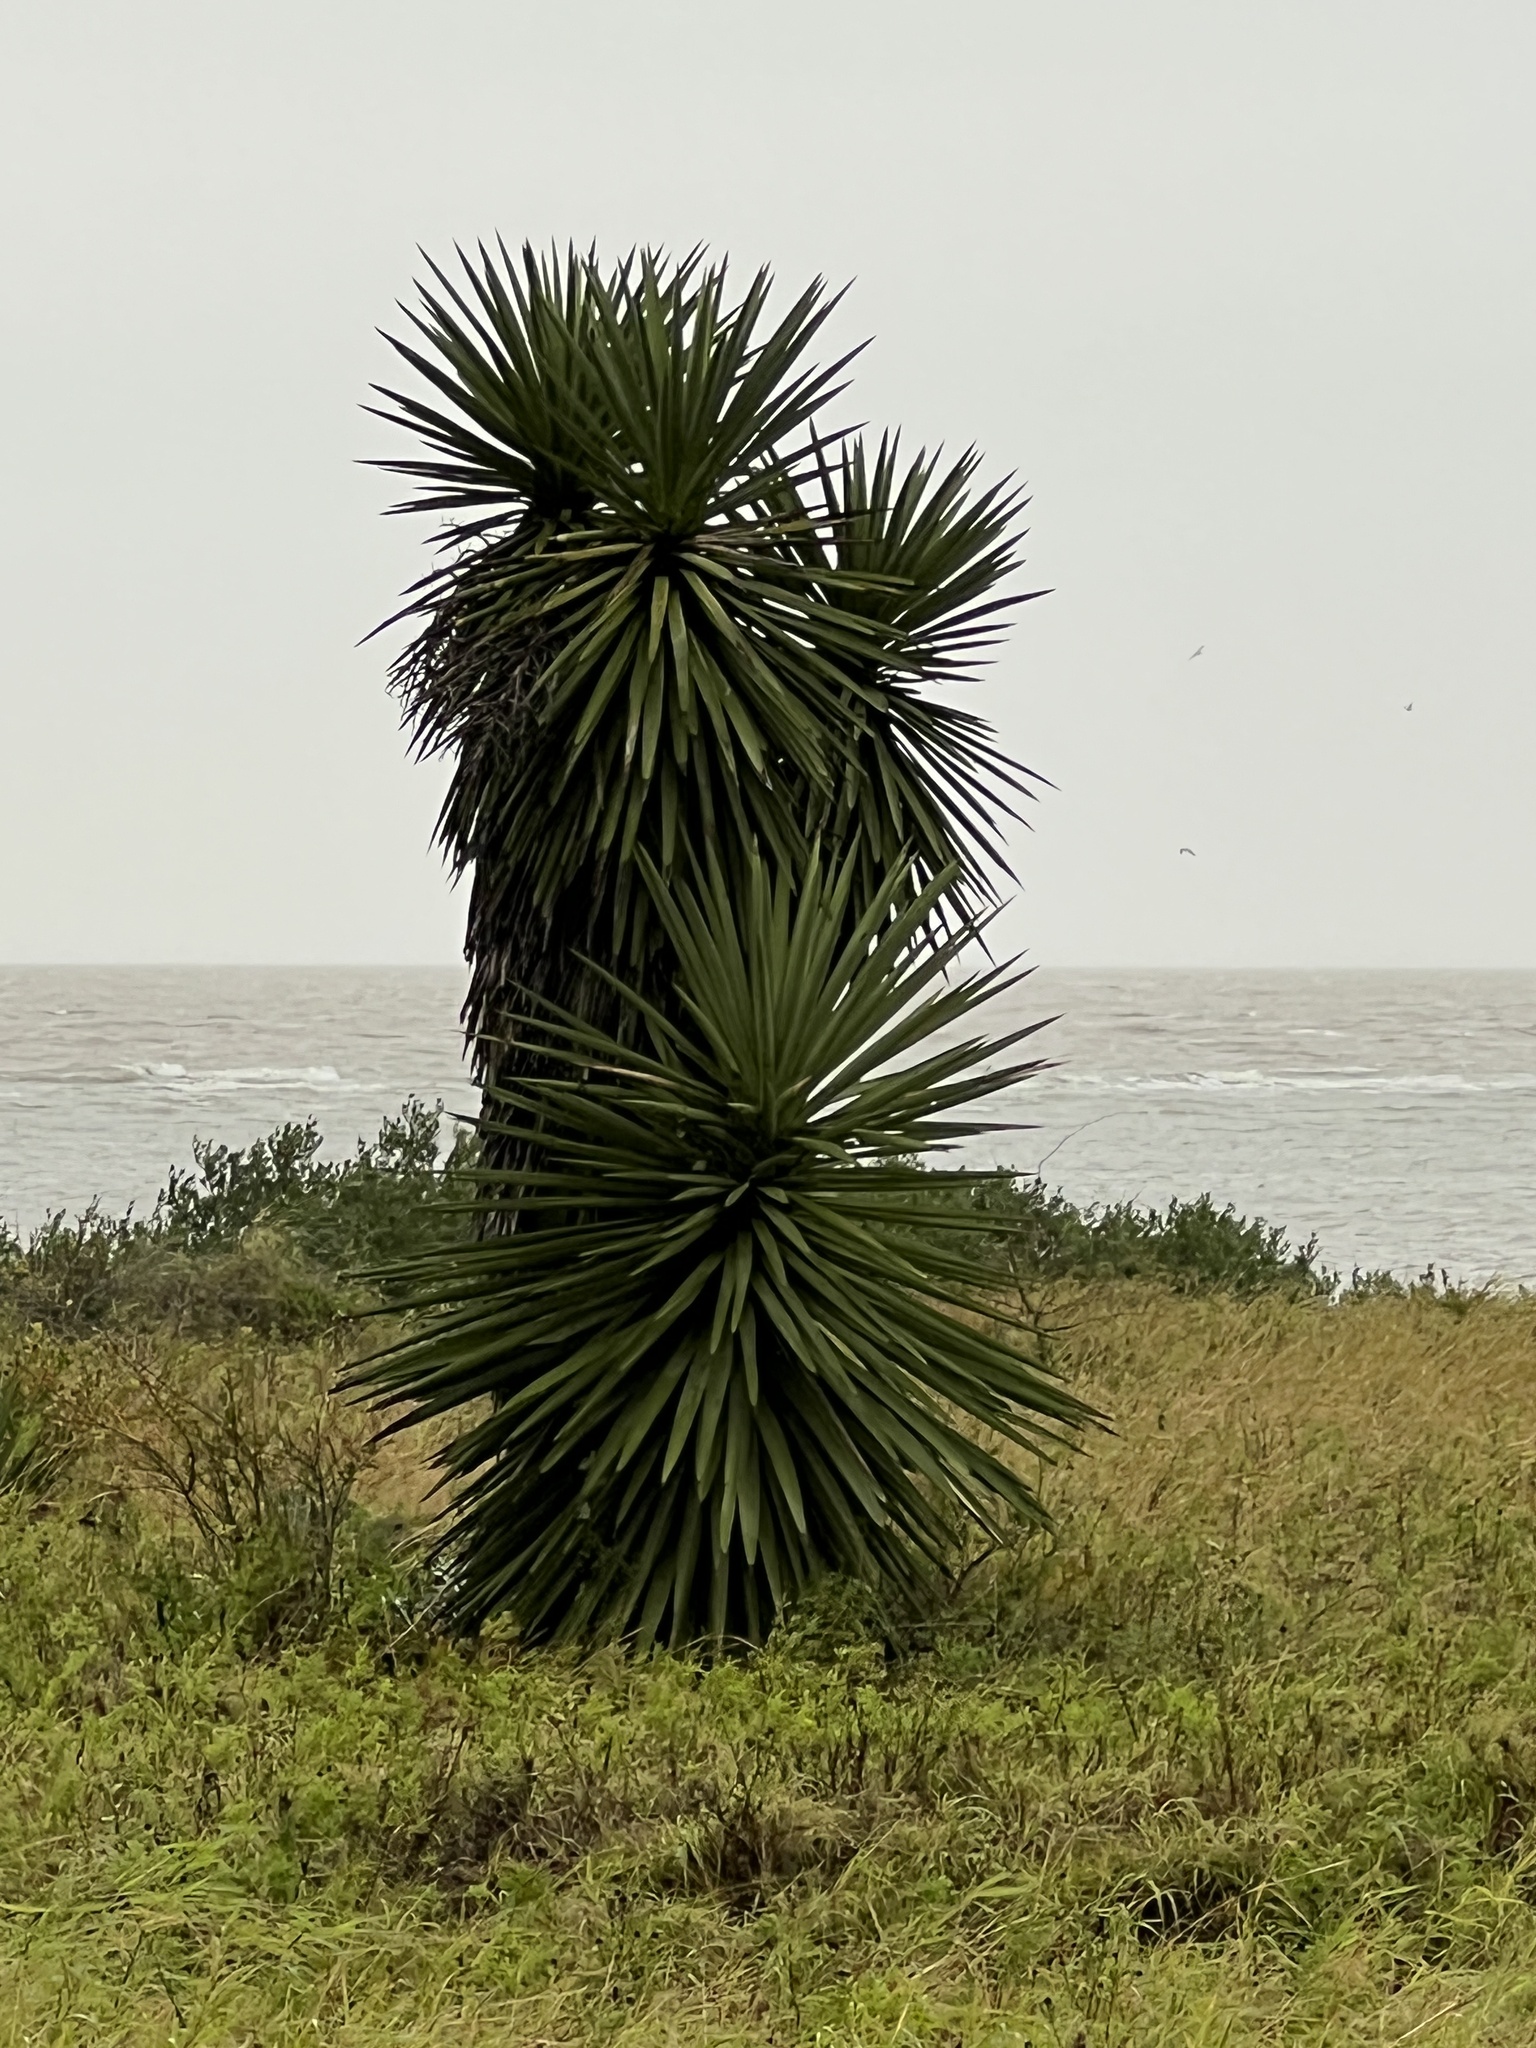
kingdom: Plantae
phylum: Tracheophyta
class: Liliopsida
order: Asparagales
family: Asparagaceae
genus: Yucca
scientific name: Yucca treculiana
